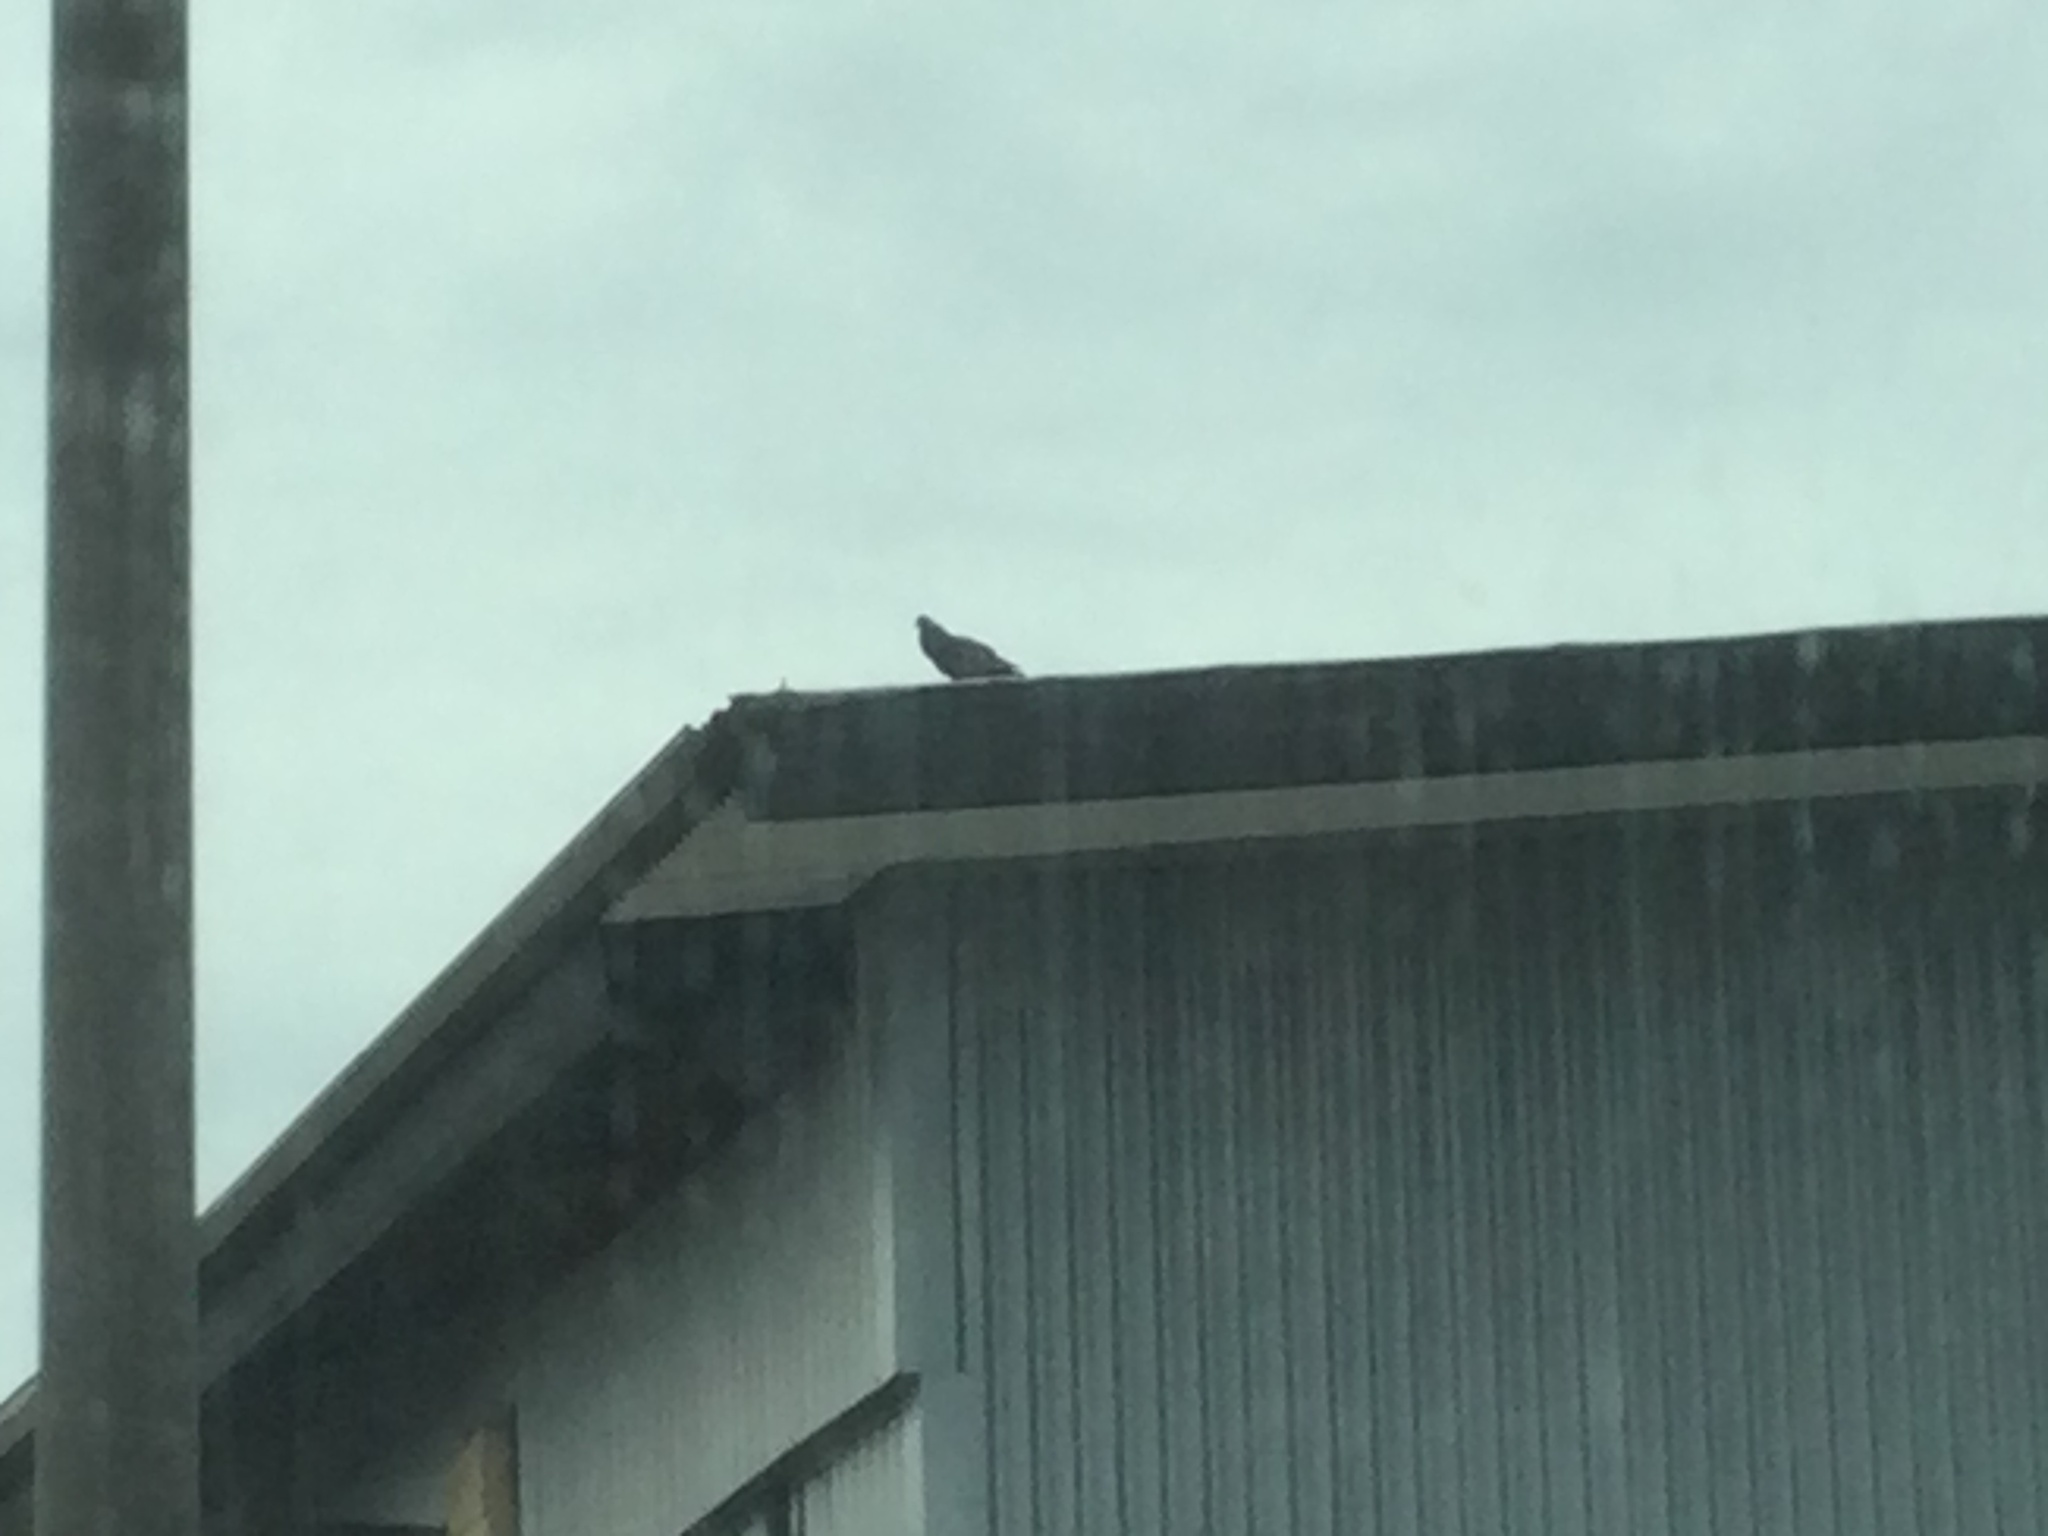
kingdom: Animalia
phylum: Chordata
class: Aves
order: Columbiformes
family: Columbidae
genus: Columba
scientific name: Columba livia
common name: Rock pigeon
